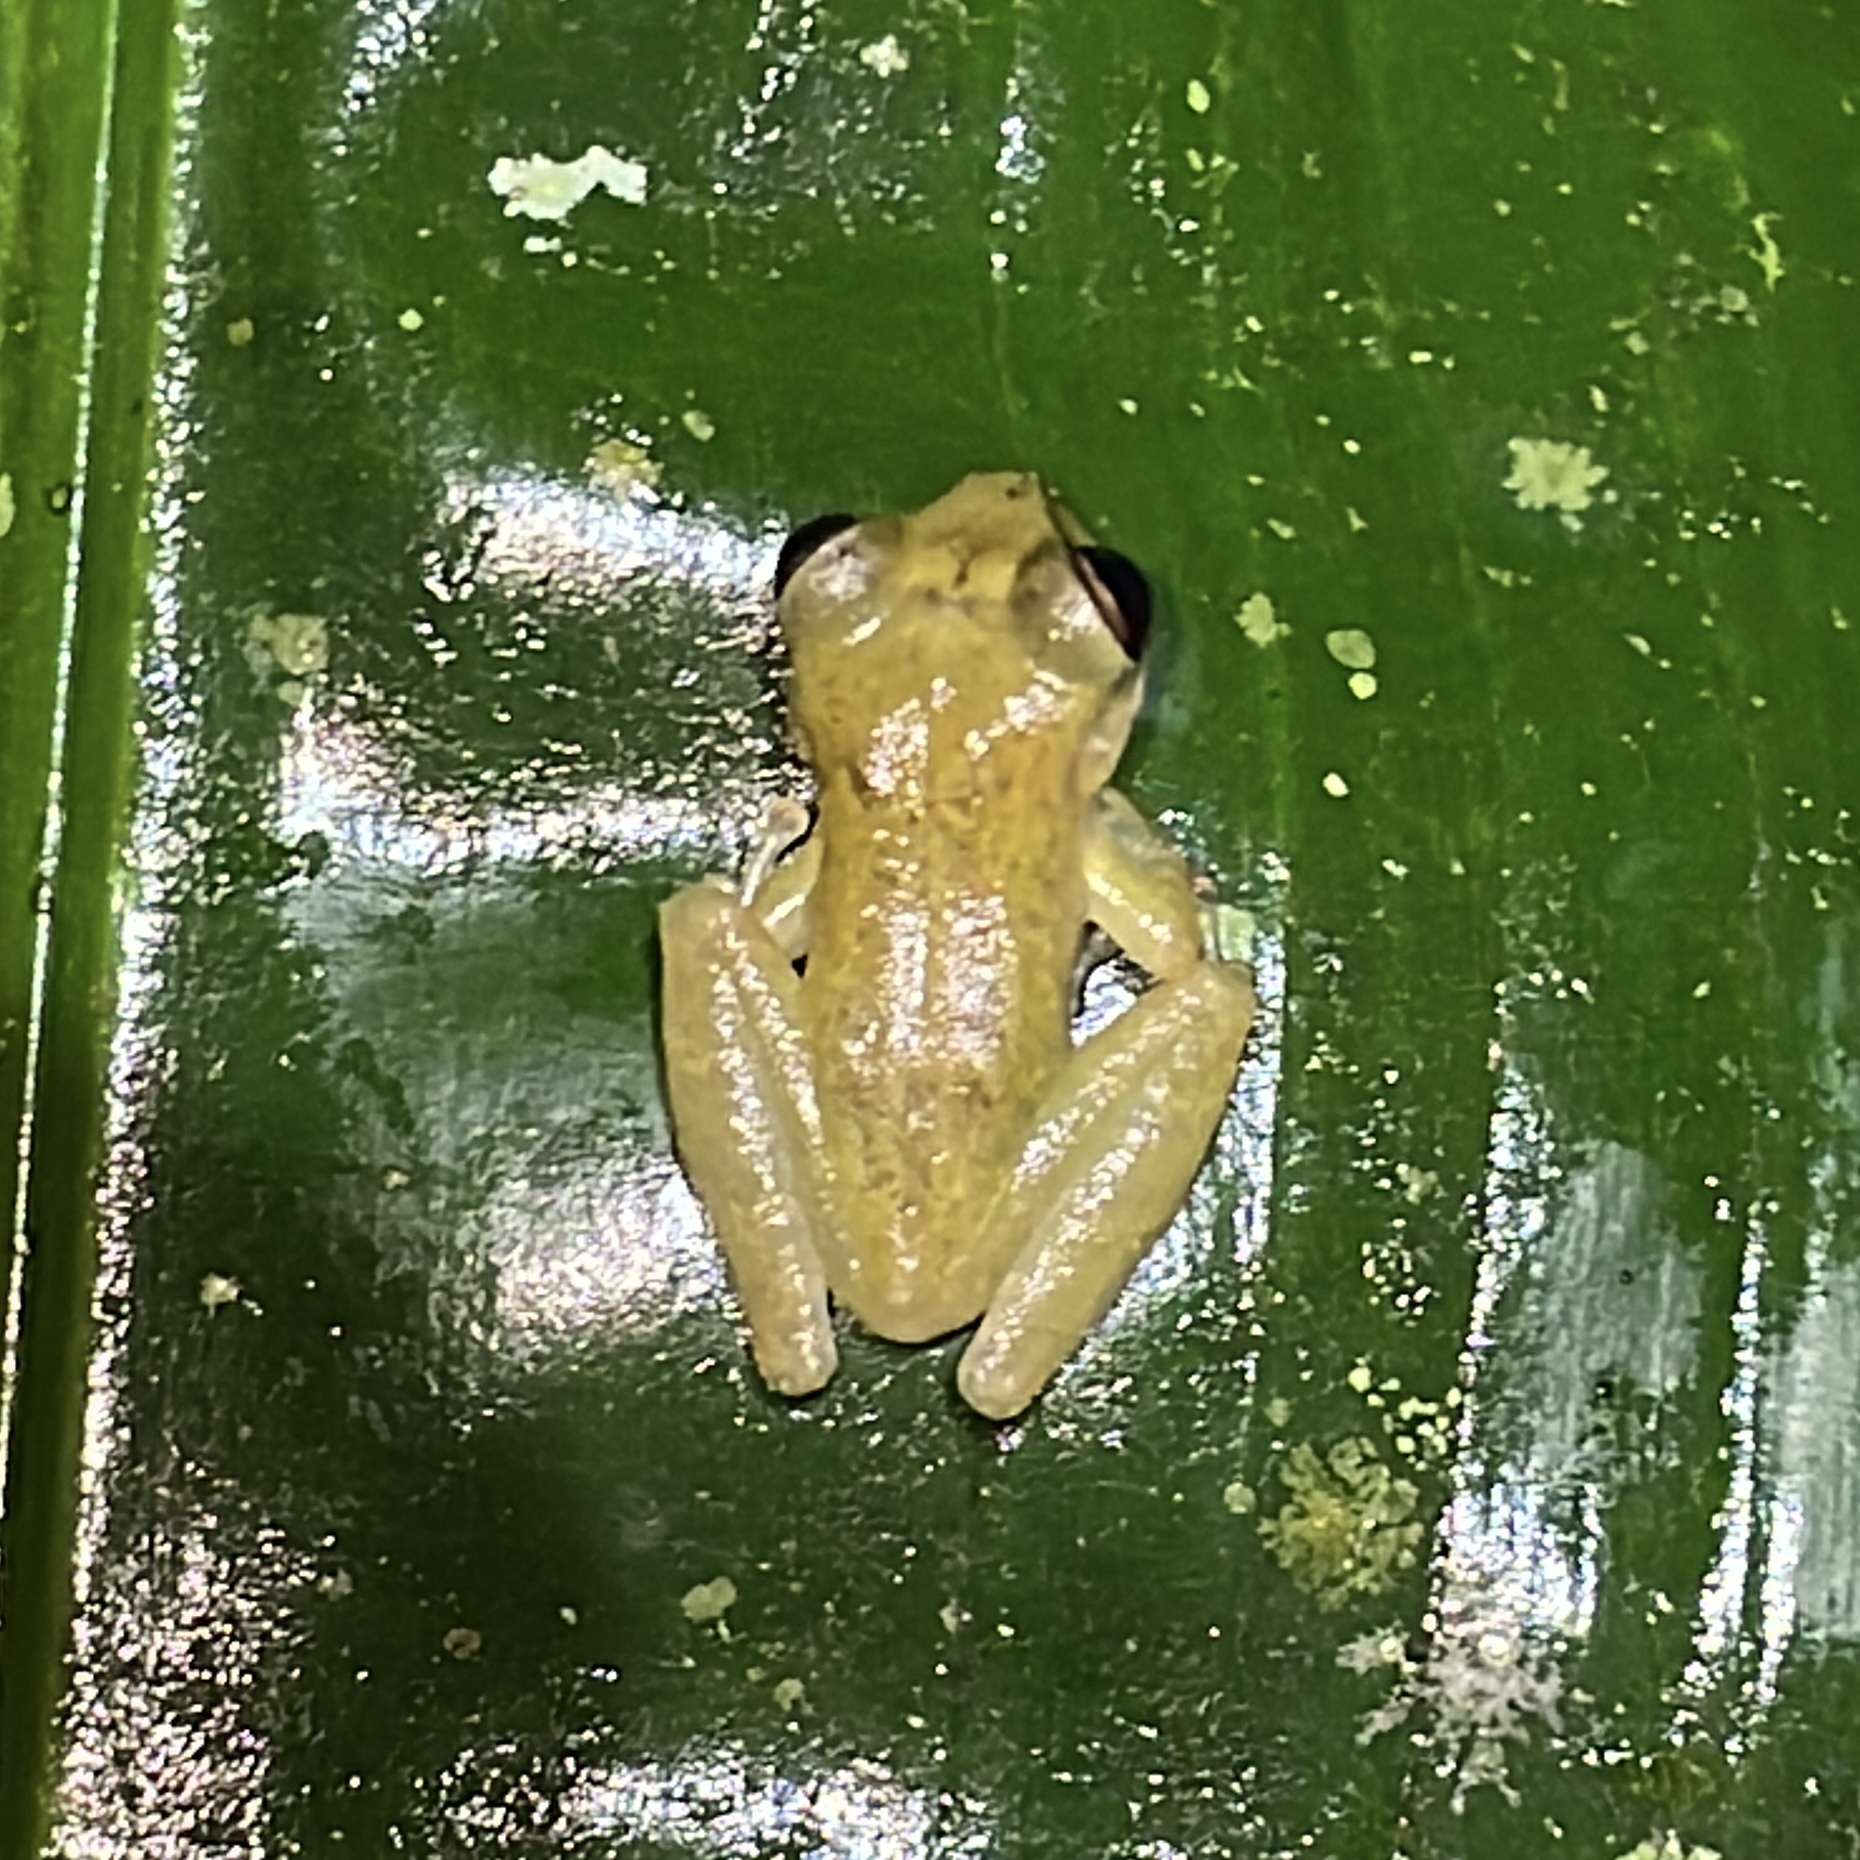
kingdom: Animalia
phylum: Chordata
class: Amphibia
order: Anura
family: Hemiphractidae
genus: Flectonotus
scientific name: Flectonotus fitzgeraldi
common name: Marsupial frog
